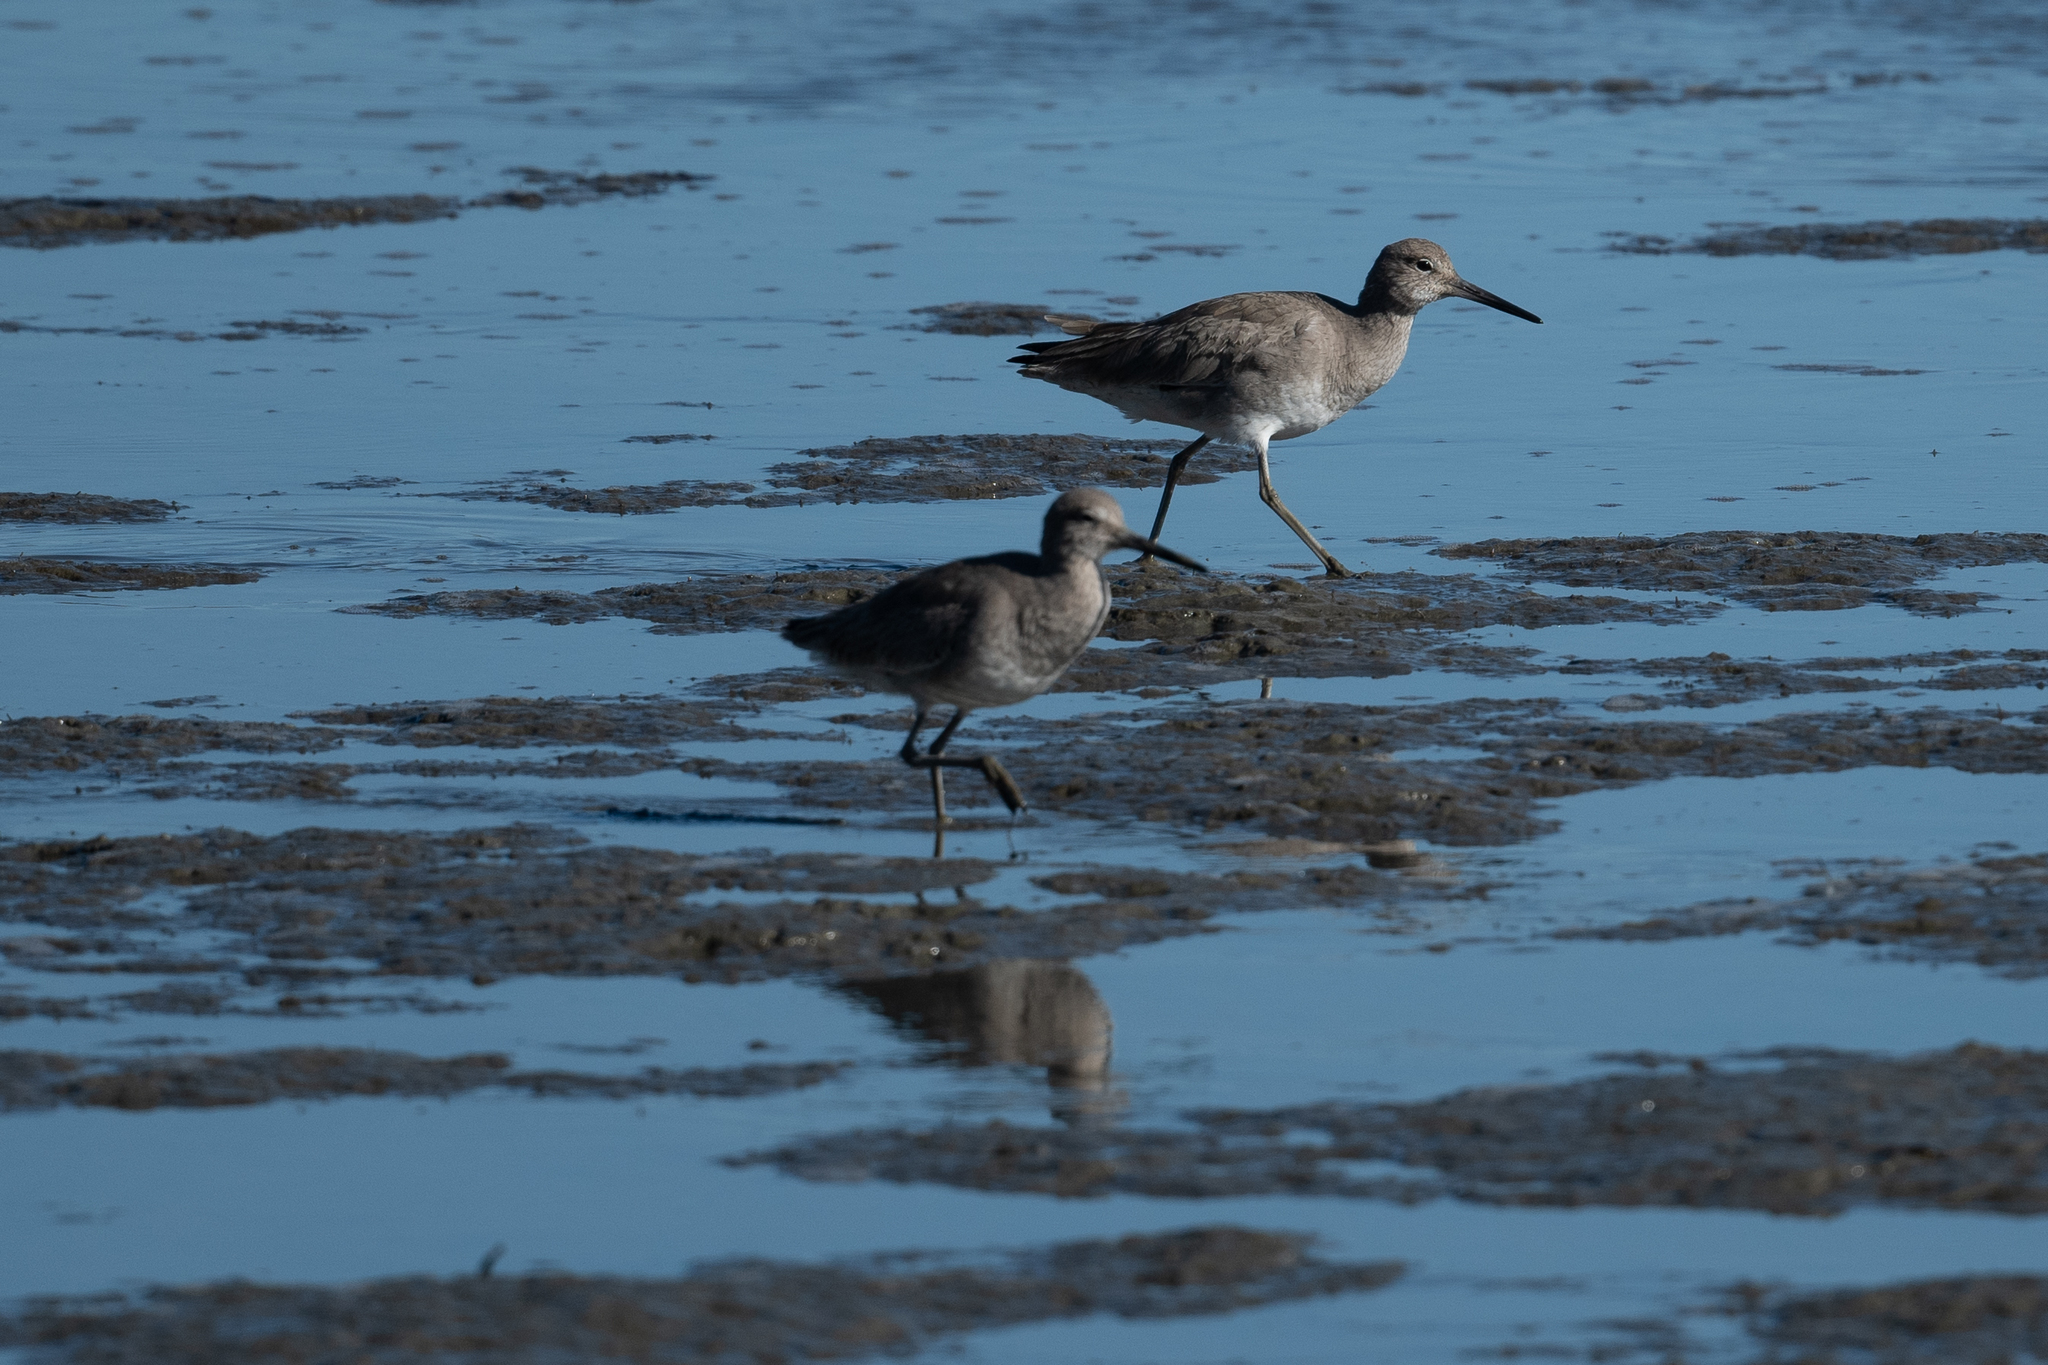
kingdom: Animalia
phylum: Chordata
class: Aves
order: Charadriiformes
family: Scolopacidae
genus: Tringa
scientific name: Tringa semipalmata
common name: Willet
